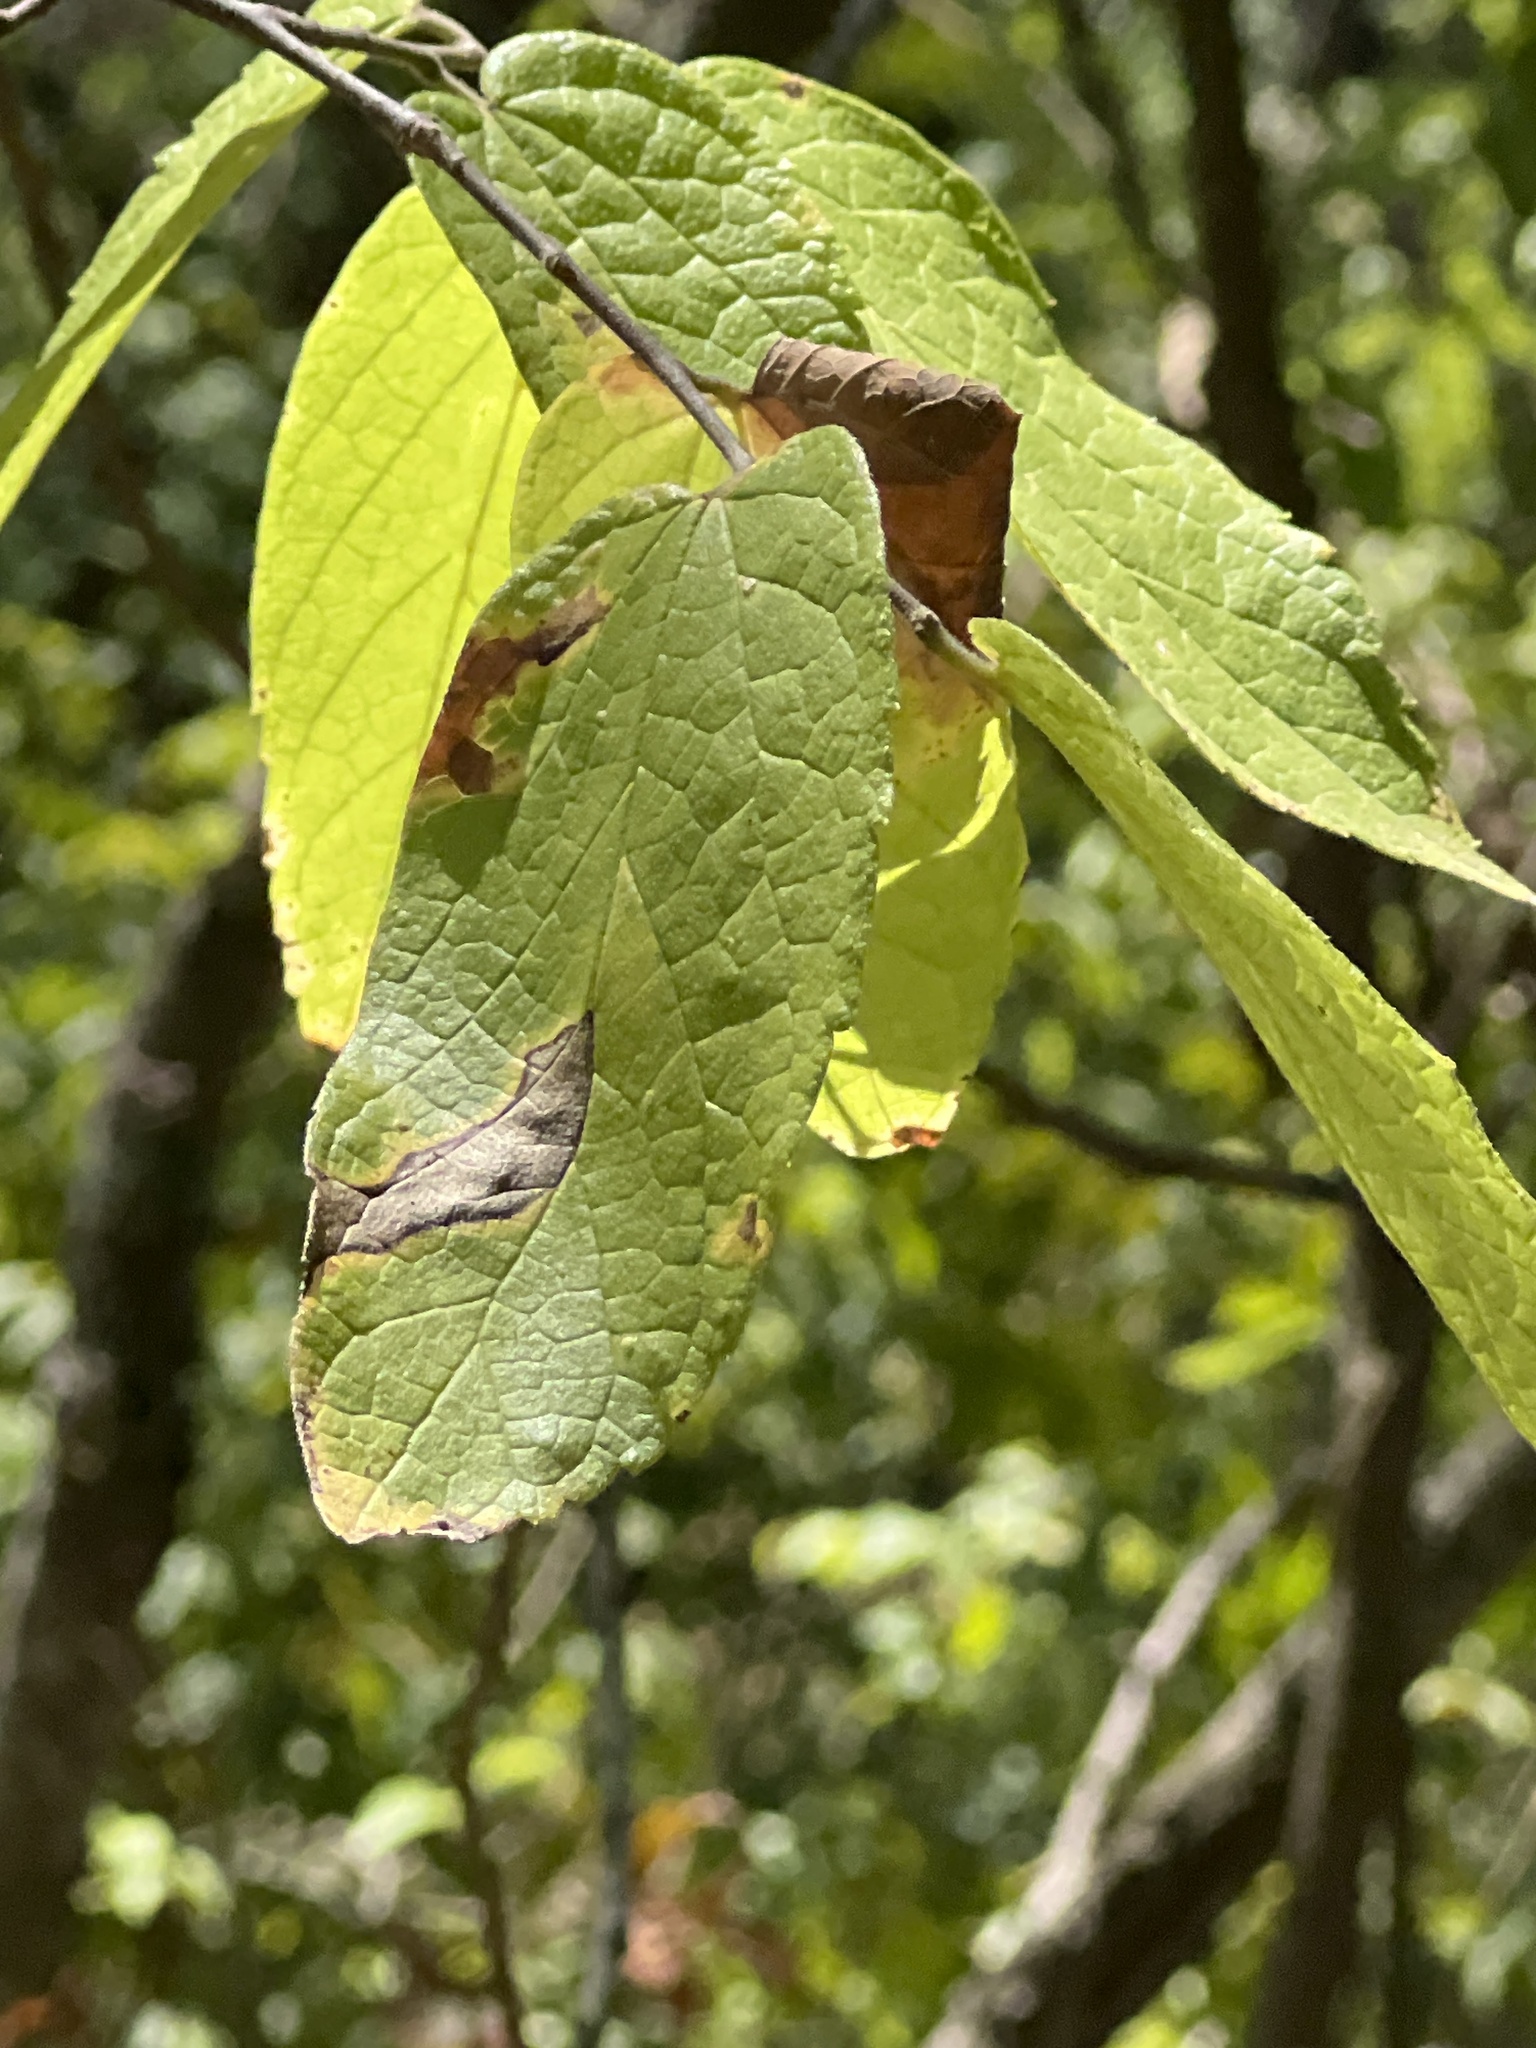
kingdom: Plantae
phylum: Tracheophyta
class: Magnoliopsida
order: Rosales
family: Cannabaceae
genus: Celtis
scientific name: Celtis reticulata
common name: Netleaf hackberry
